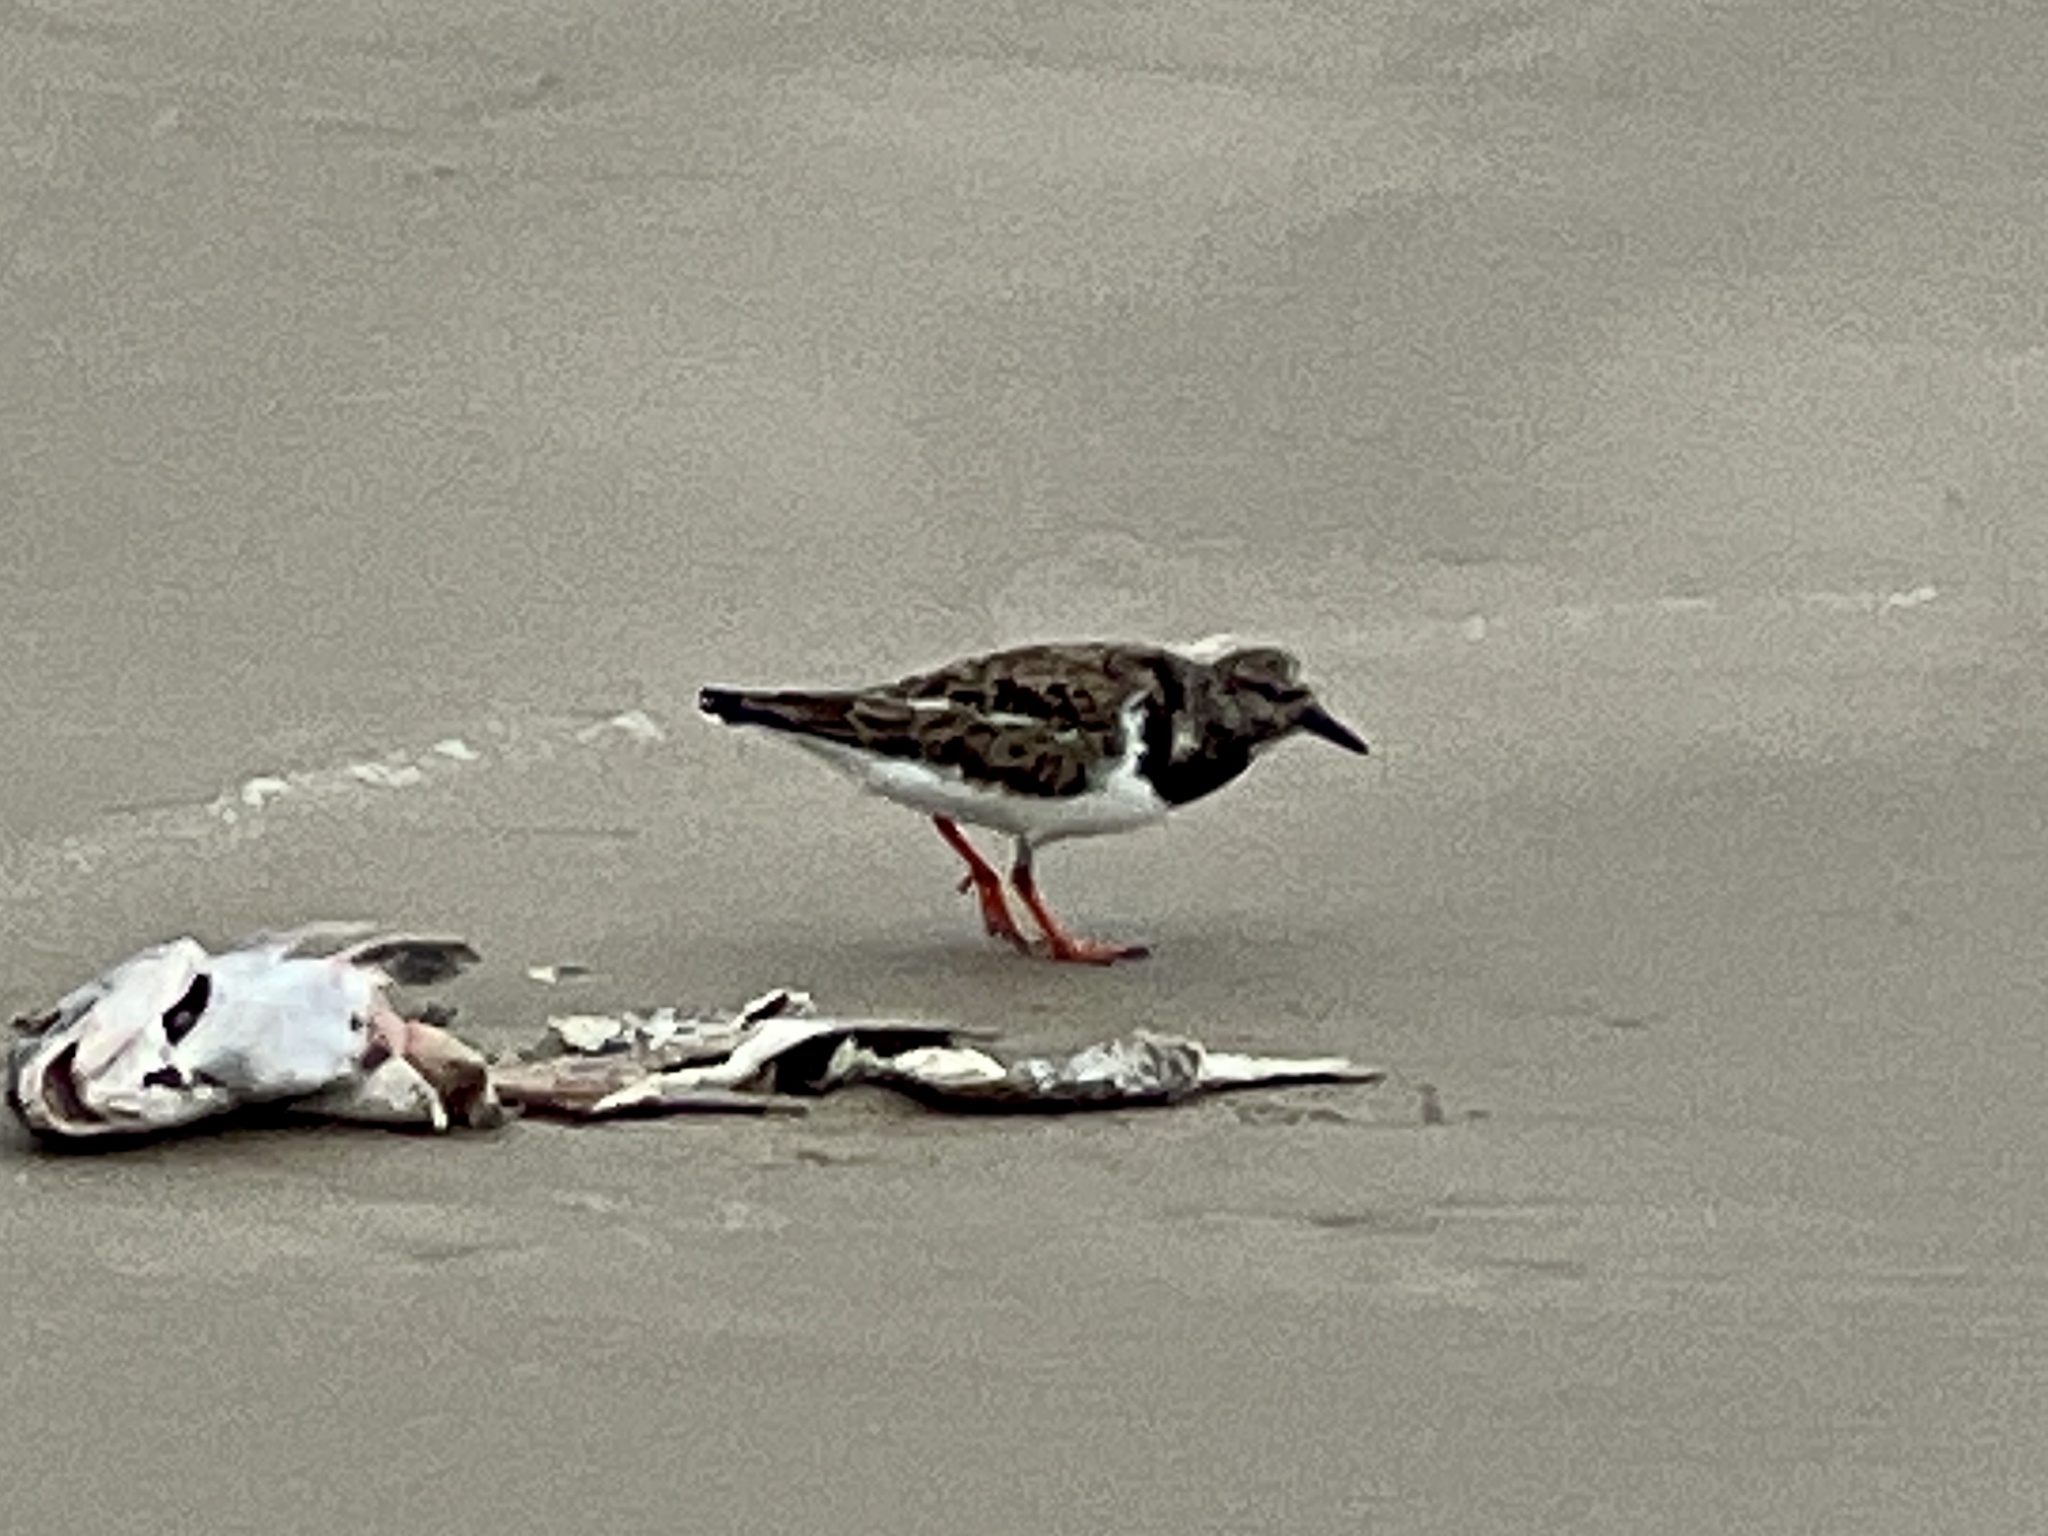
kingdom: Animalia
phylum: Chordata
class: Aves
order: Charadriiformes
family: Scolopacidae
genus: Arenaria
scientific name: Arenaria interpres
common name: Ruddy turnstone
